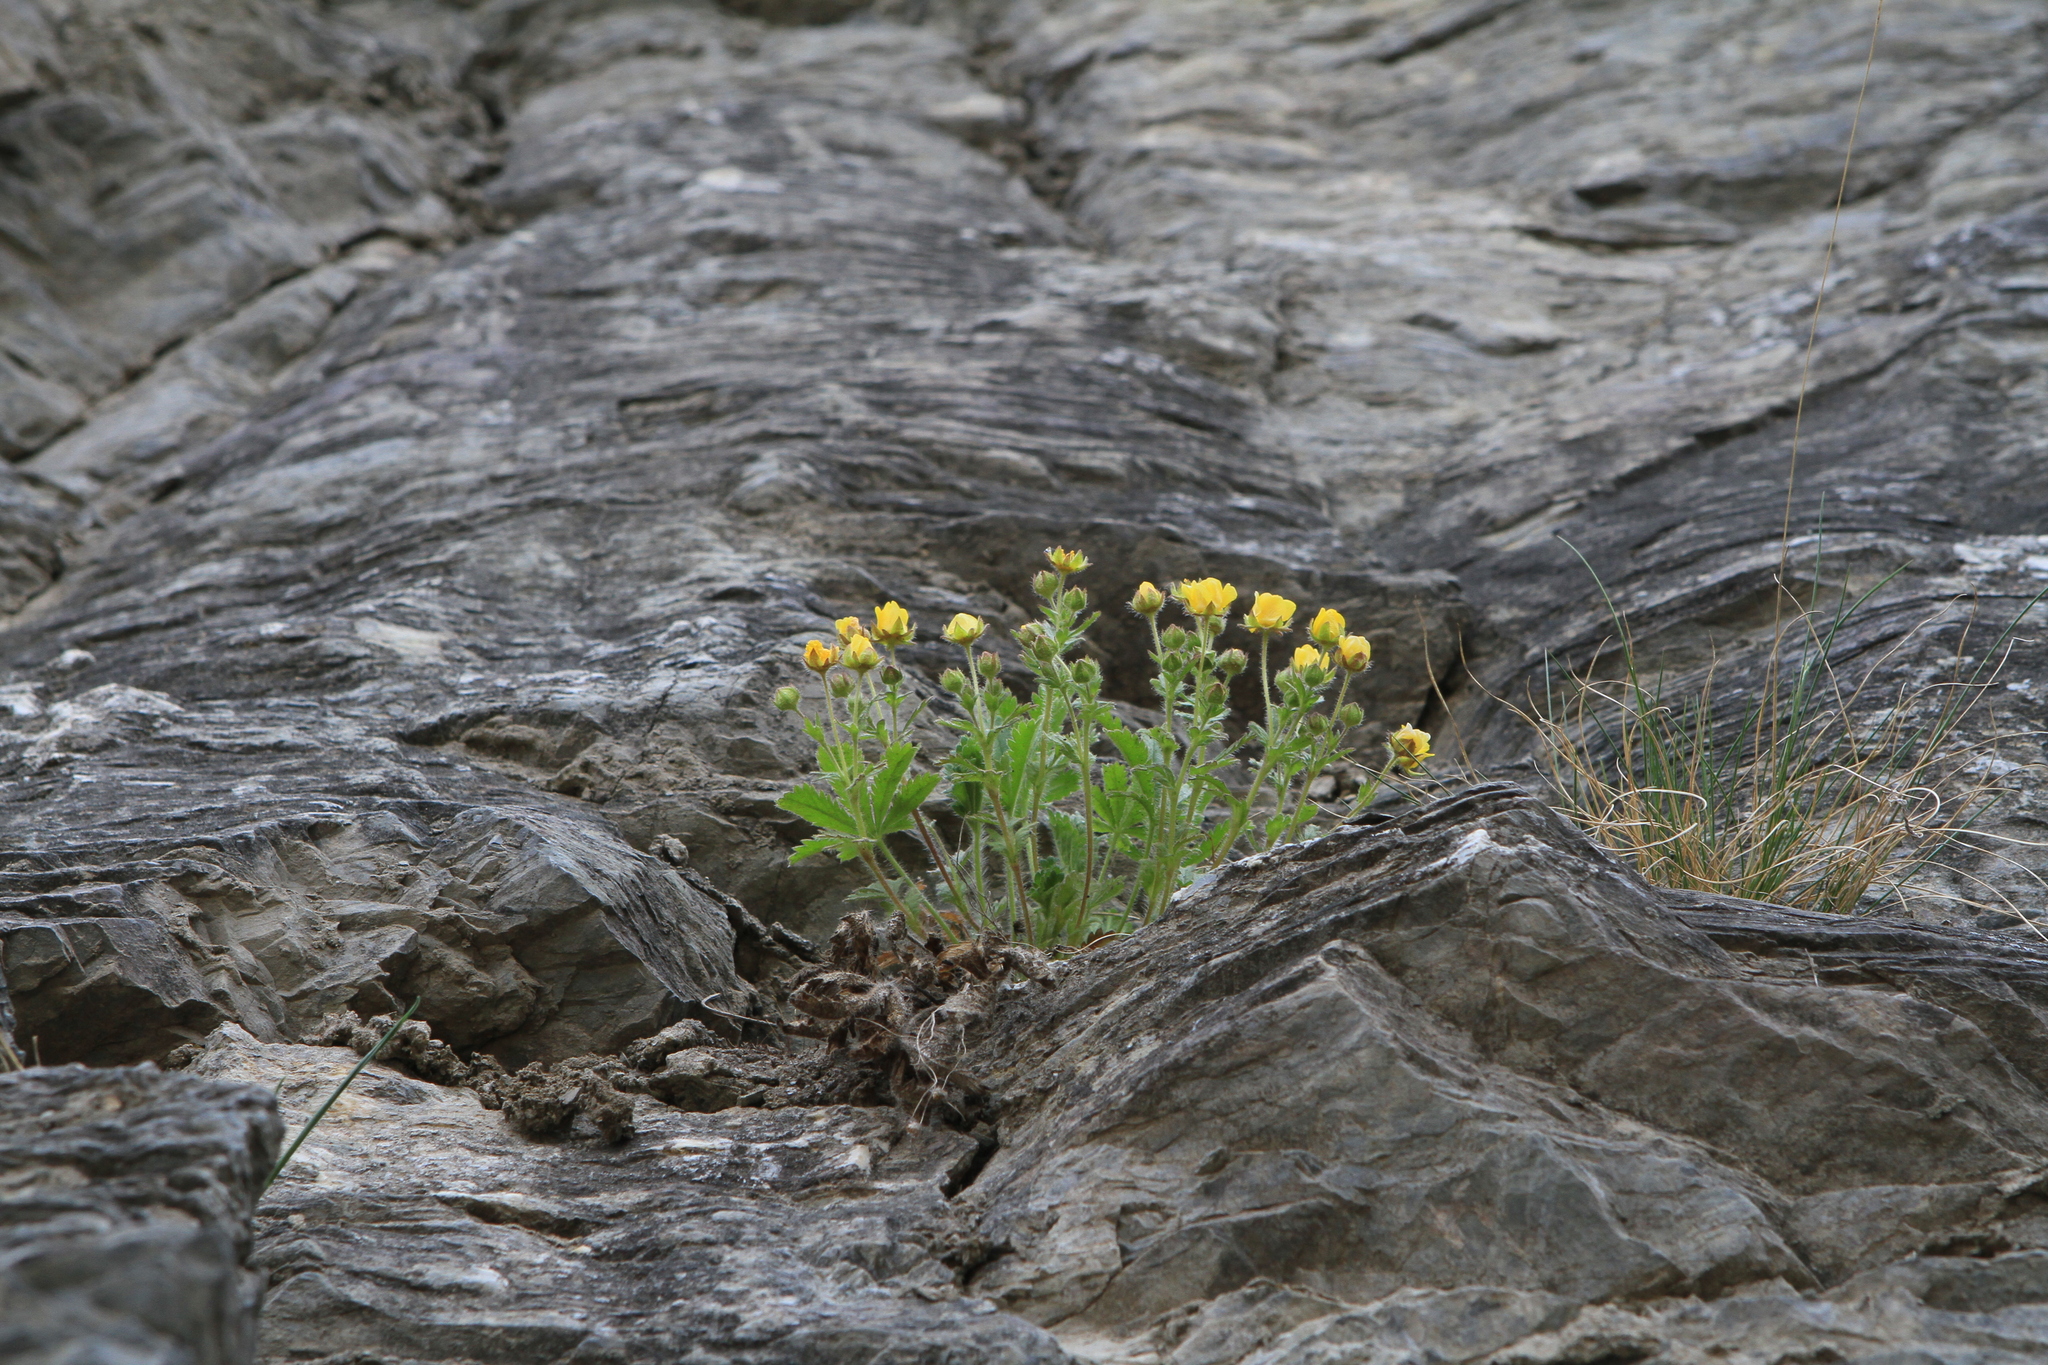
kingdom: Plantae
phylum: Tracheophyta
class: Magnoliopsida
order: Rosales
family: Rosaceae
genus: Potentilla
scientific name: Potentilla humifusa
